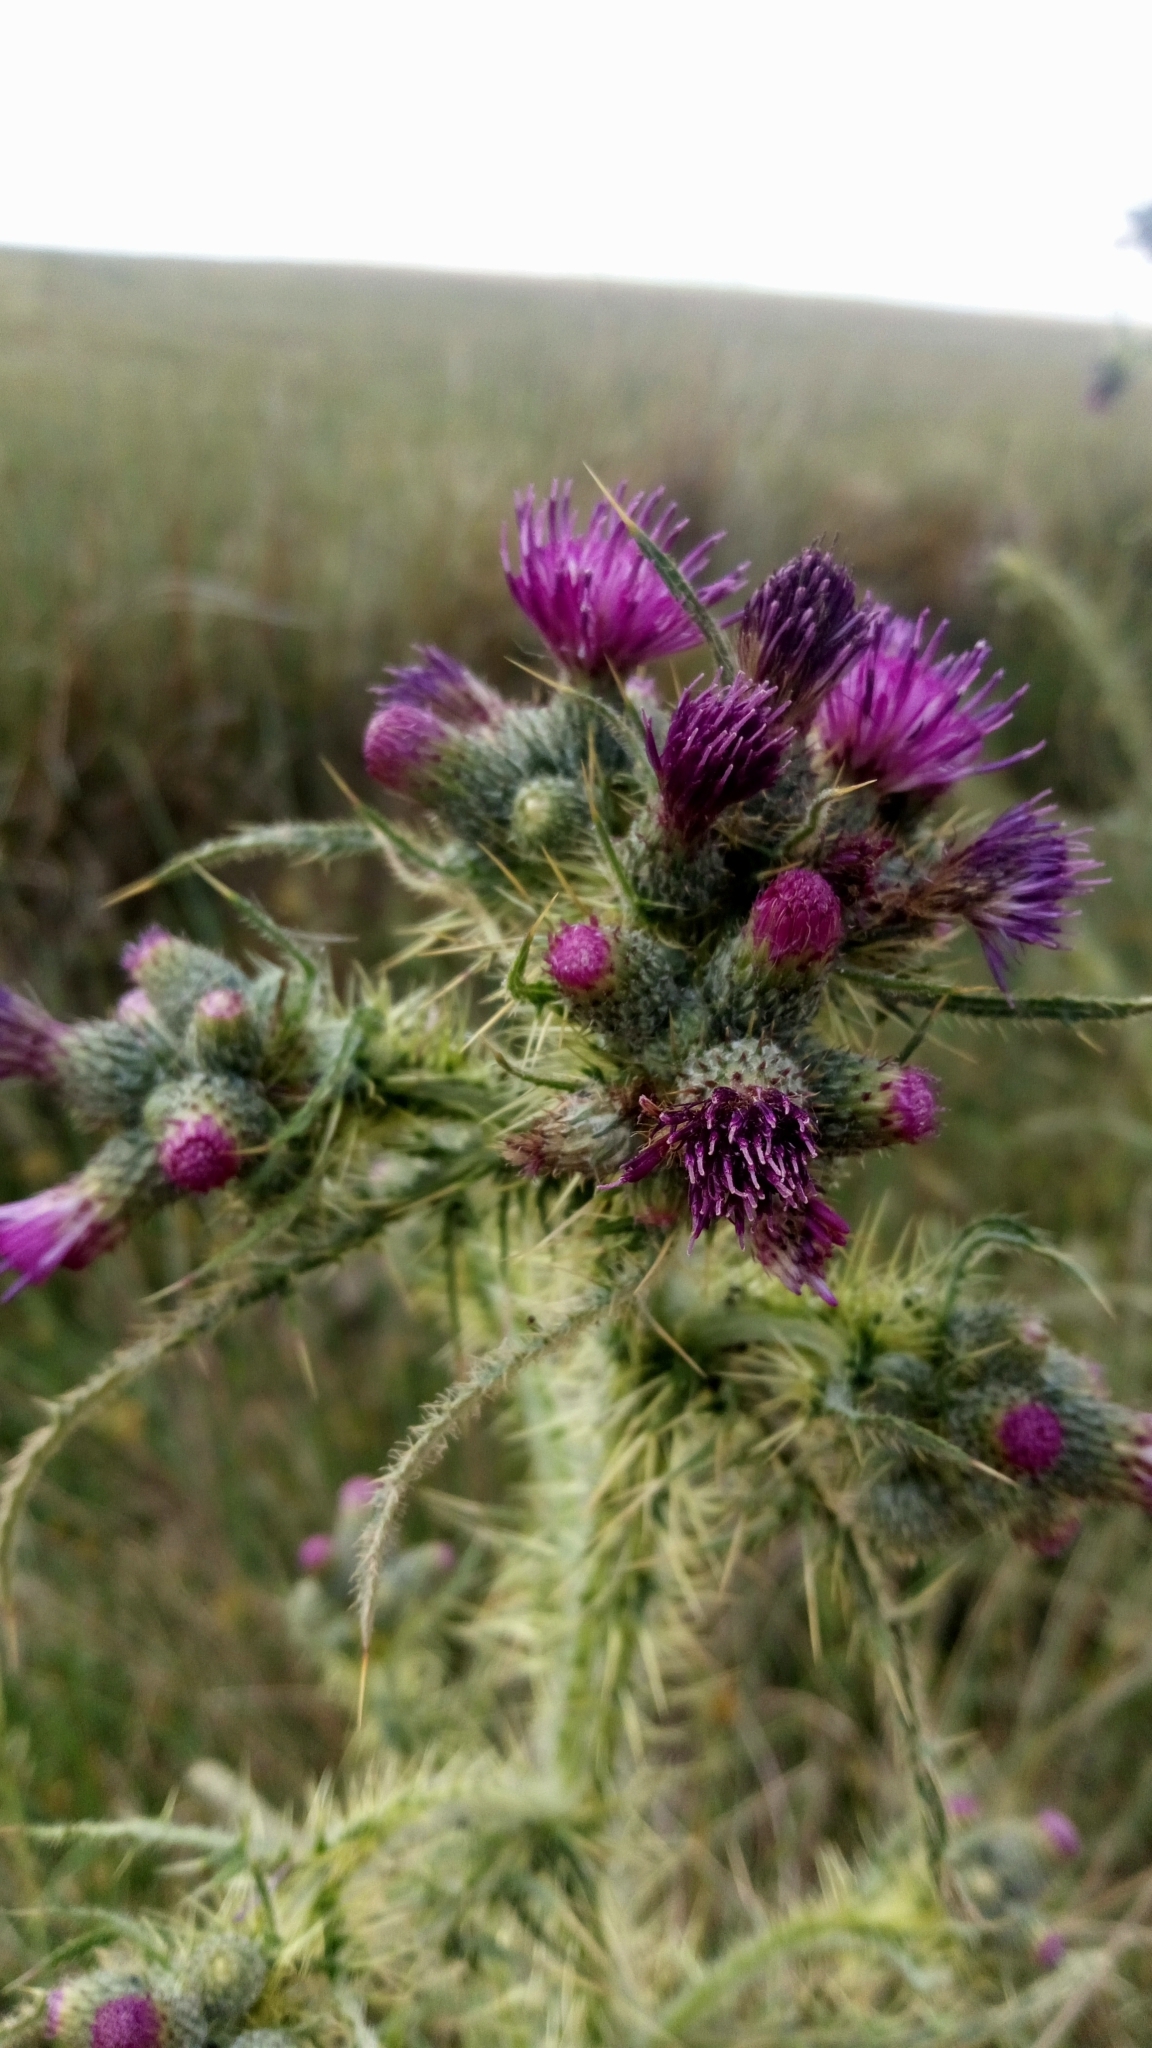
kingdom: Plantae
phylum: Tracheophyta
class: Magnoliopsida
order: Asterales
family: Asteraceae
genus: Cirsium
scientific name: Cirsium palustre
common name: Marsh thistle
